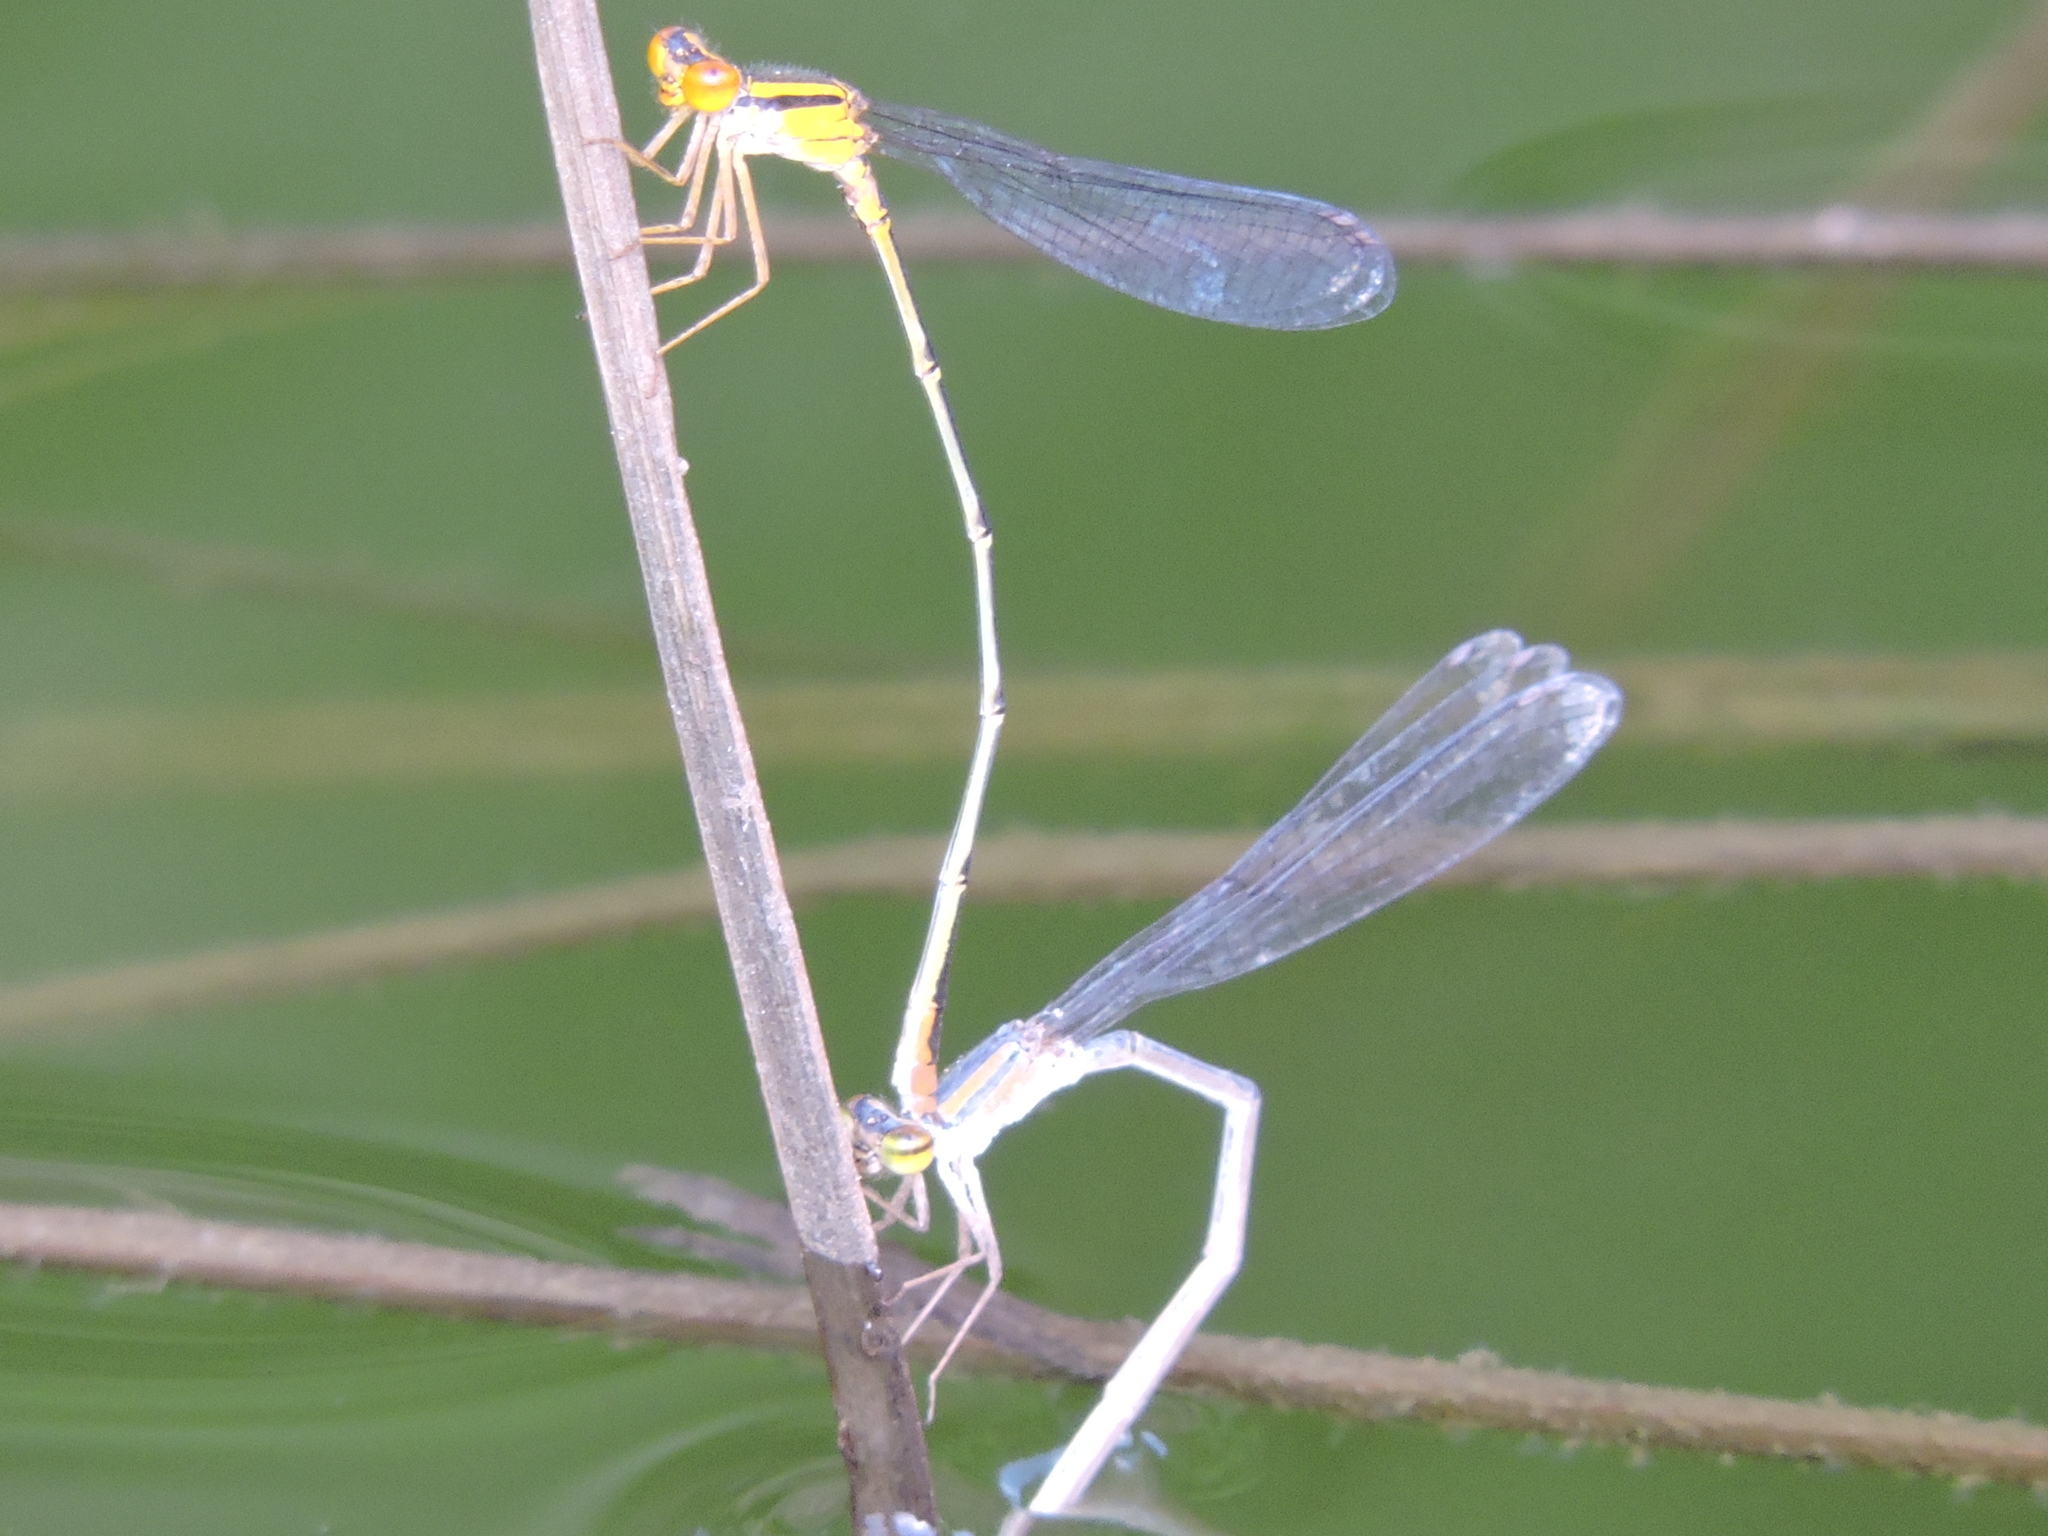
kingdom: Animalia
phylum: Arthropoda
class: Insecta
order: Odonata
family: Coenagrionidae
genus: Enallagma
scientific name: Enallagma signatum
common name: Orange bluet
